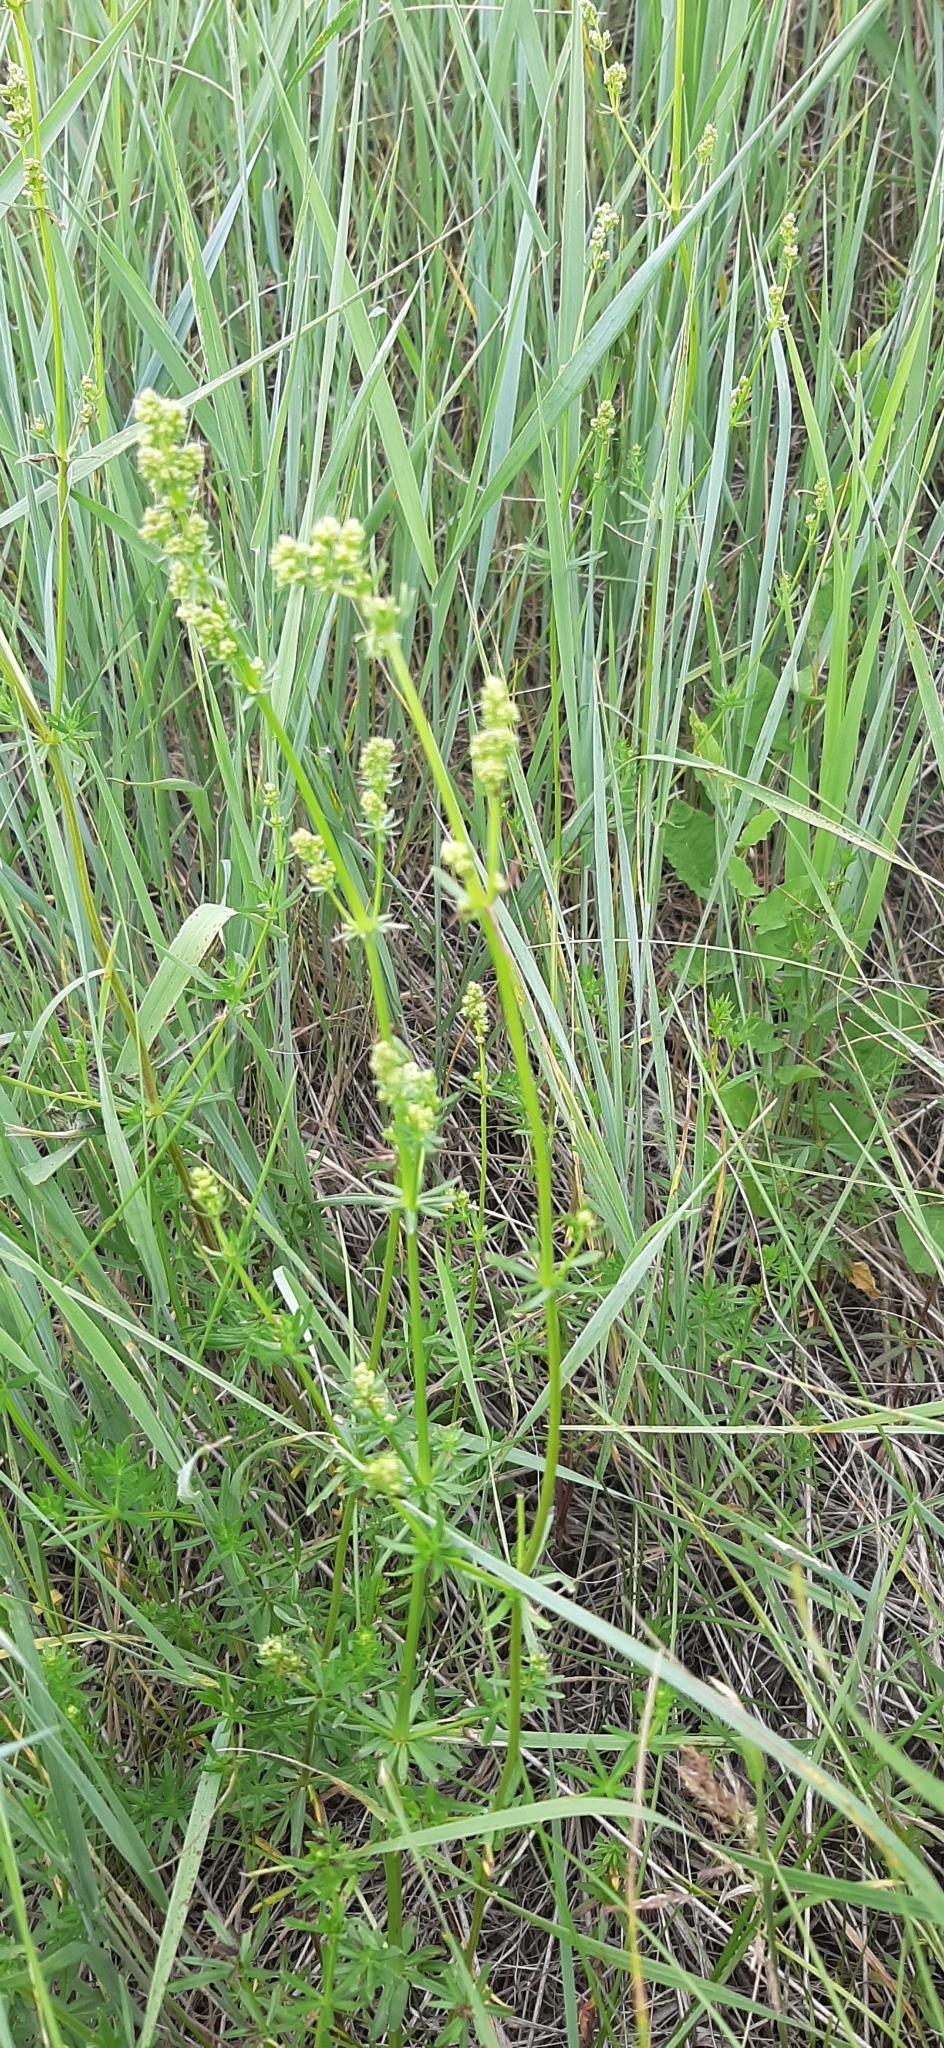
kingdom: Plantae
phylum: Tracheophyta
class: Magnoliopsida
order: Gentianales
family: Rubiaceae
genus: Galium
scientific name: Galium mollugo
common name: Hedge bedstraw
